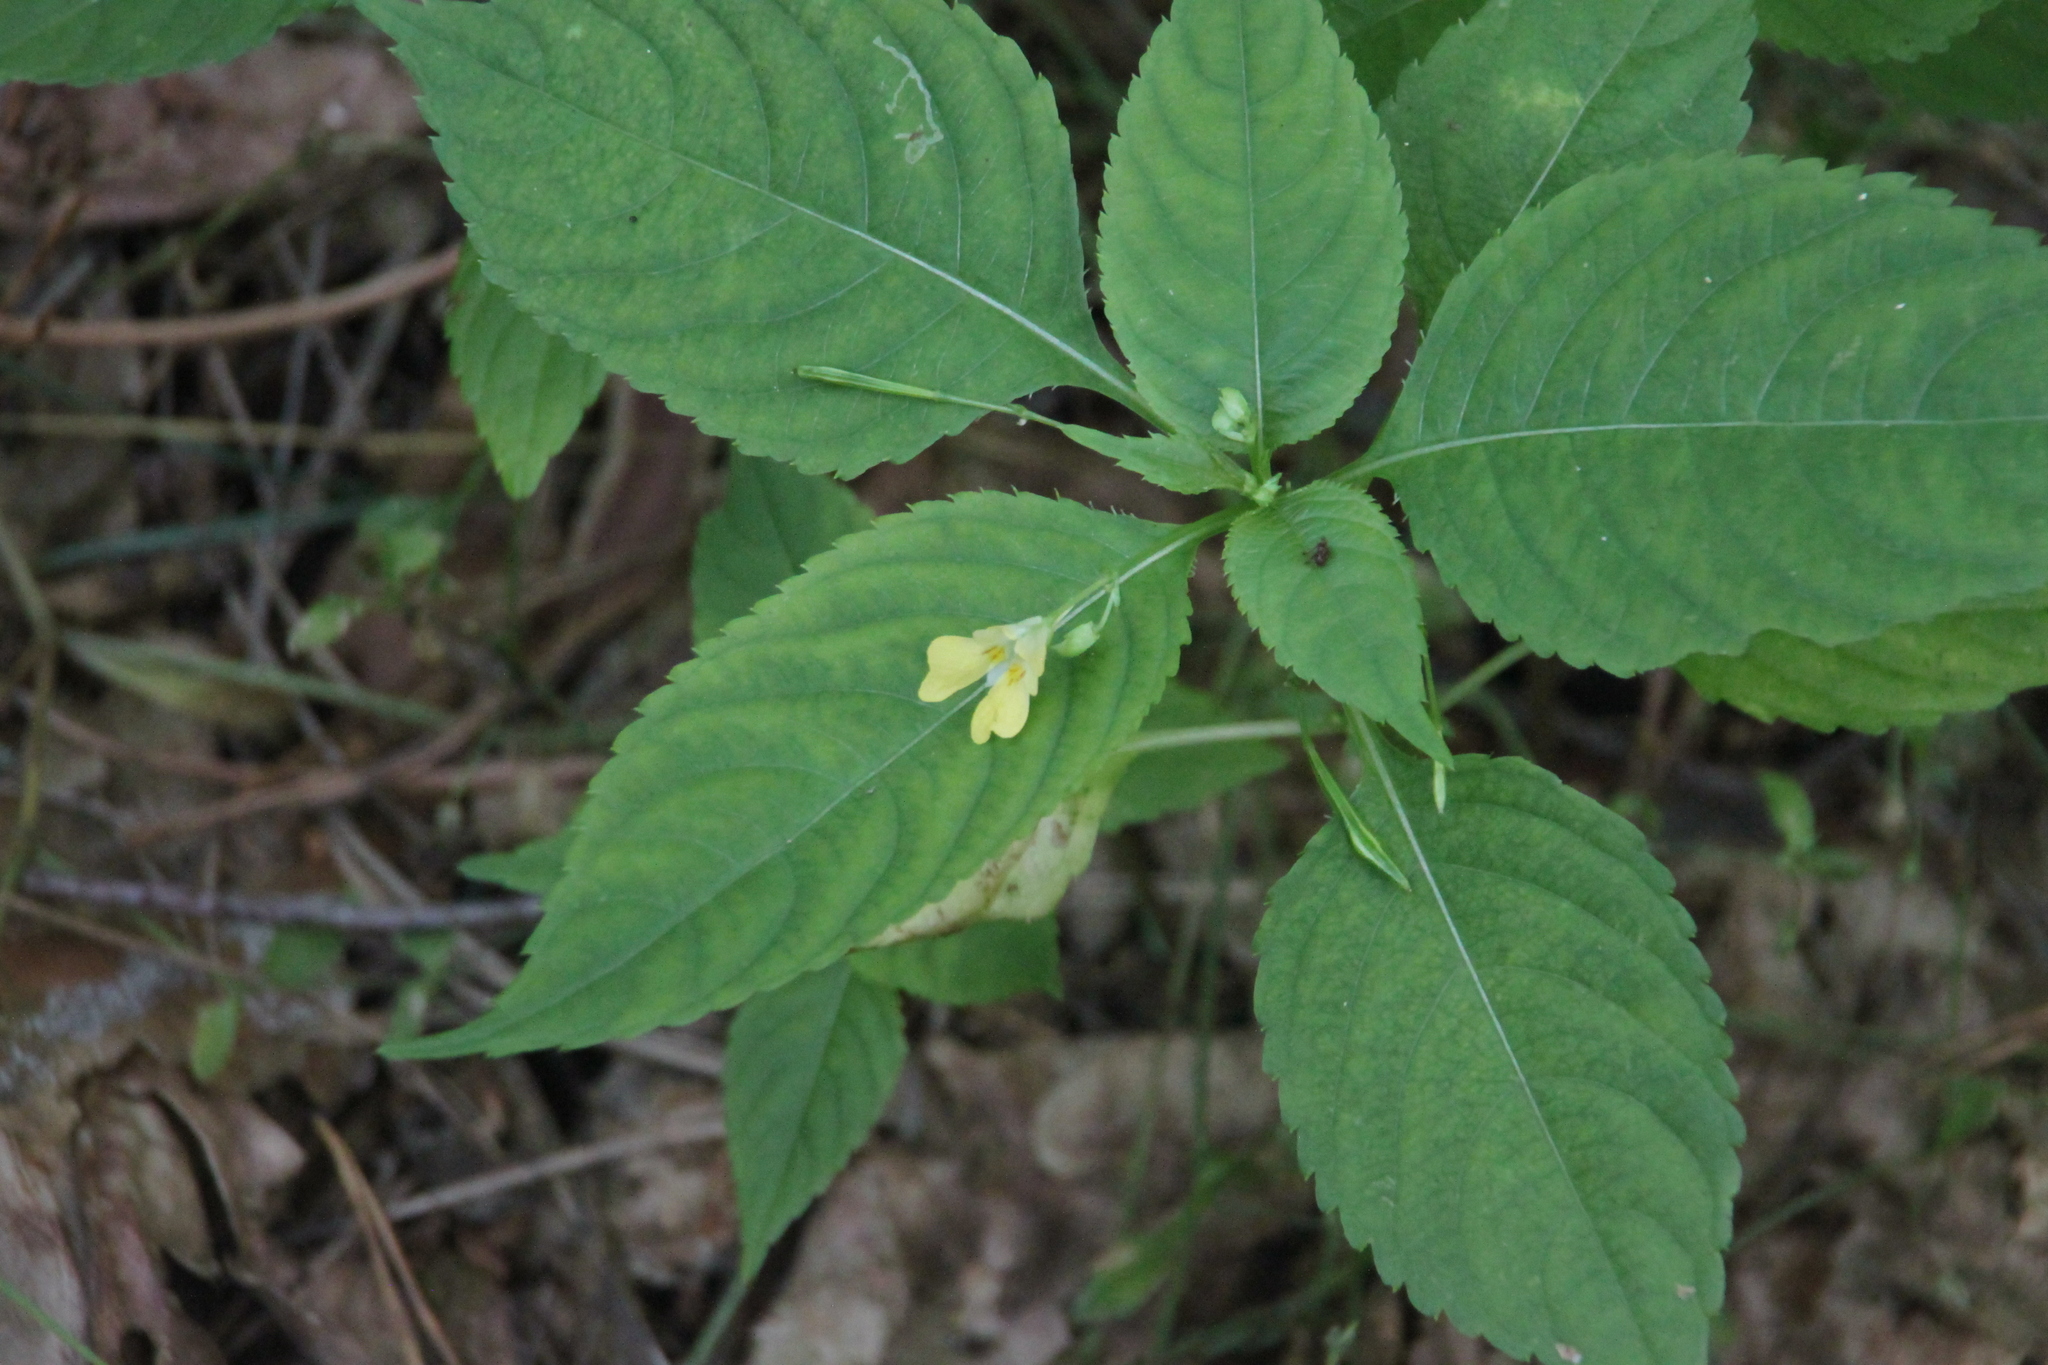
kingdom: Plantae
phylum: Tracheophyta
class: Magnoliopsida
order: Ericales
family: Balsaminaceae
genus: Impatiens
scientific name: Impatiens parviflora
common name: Small balsam
